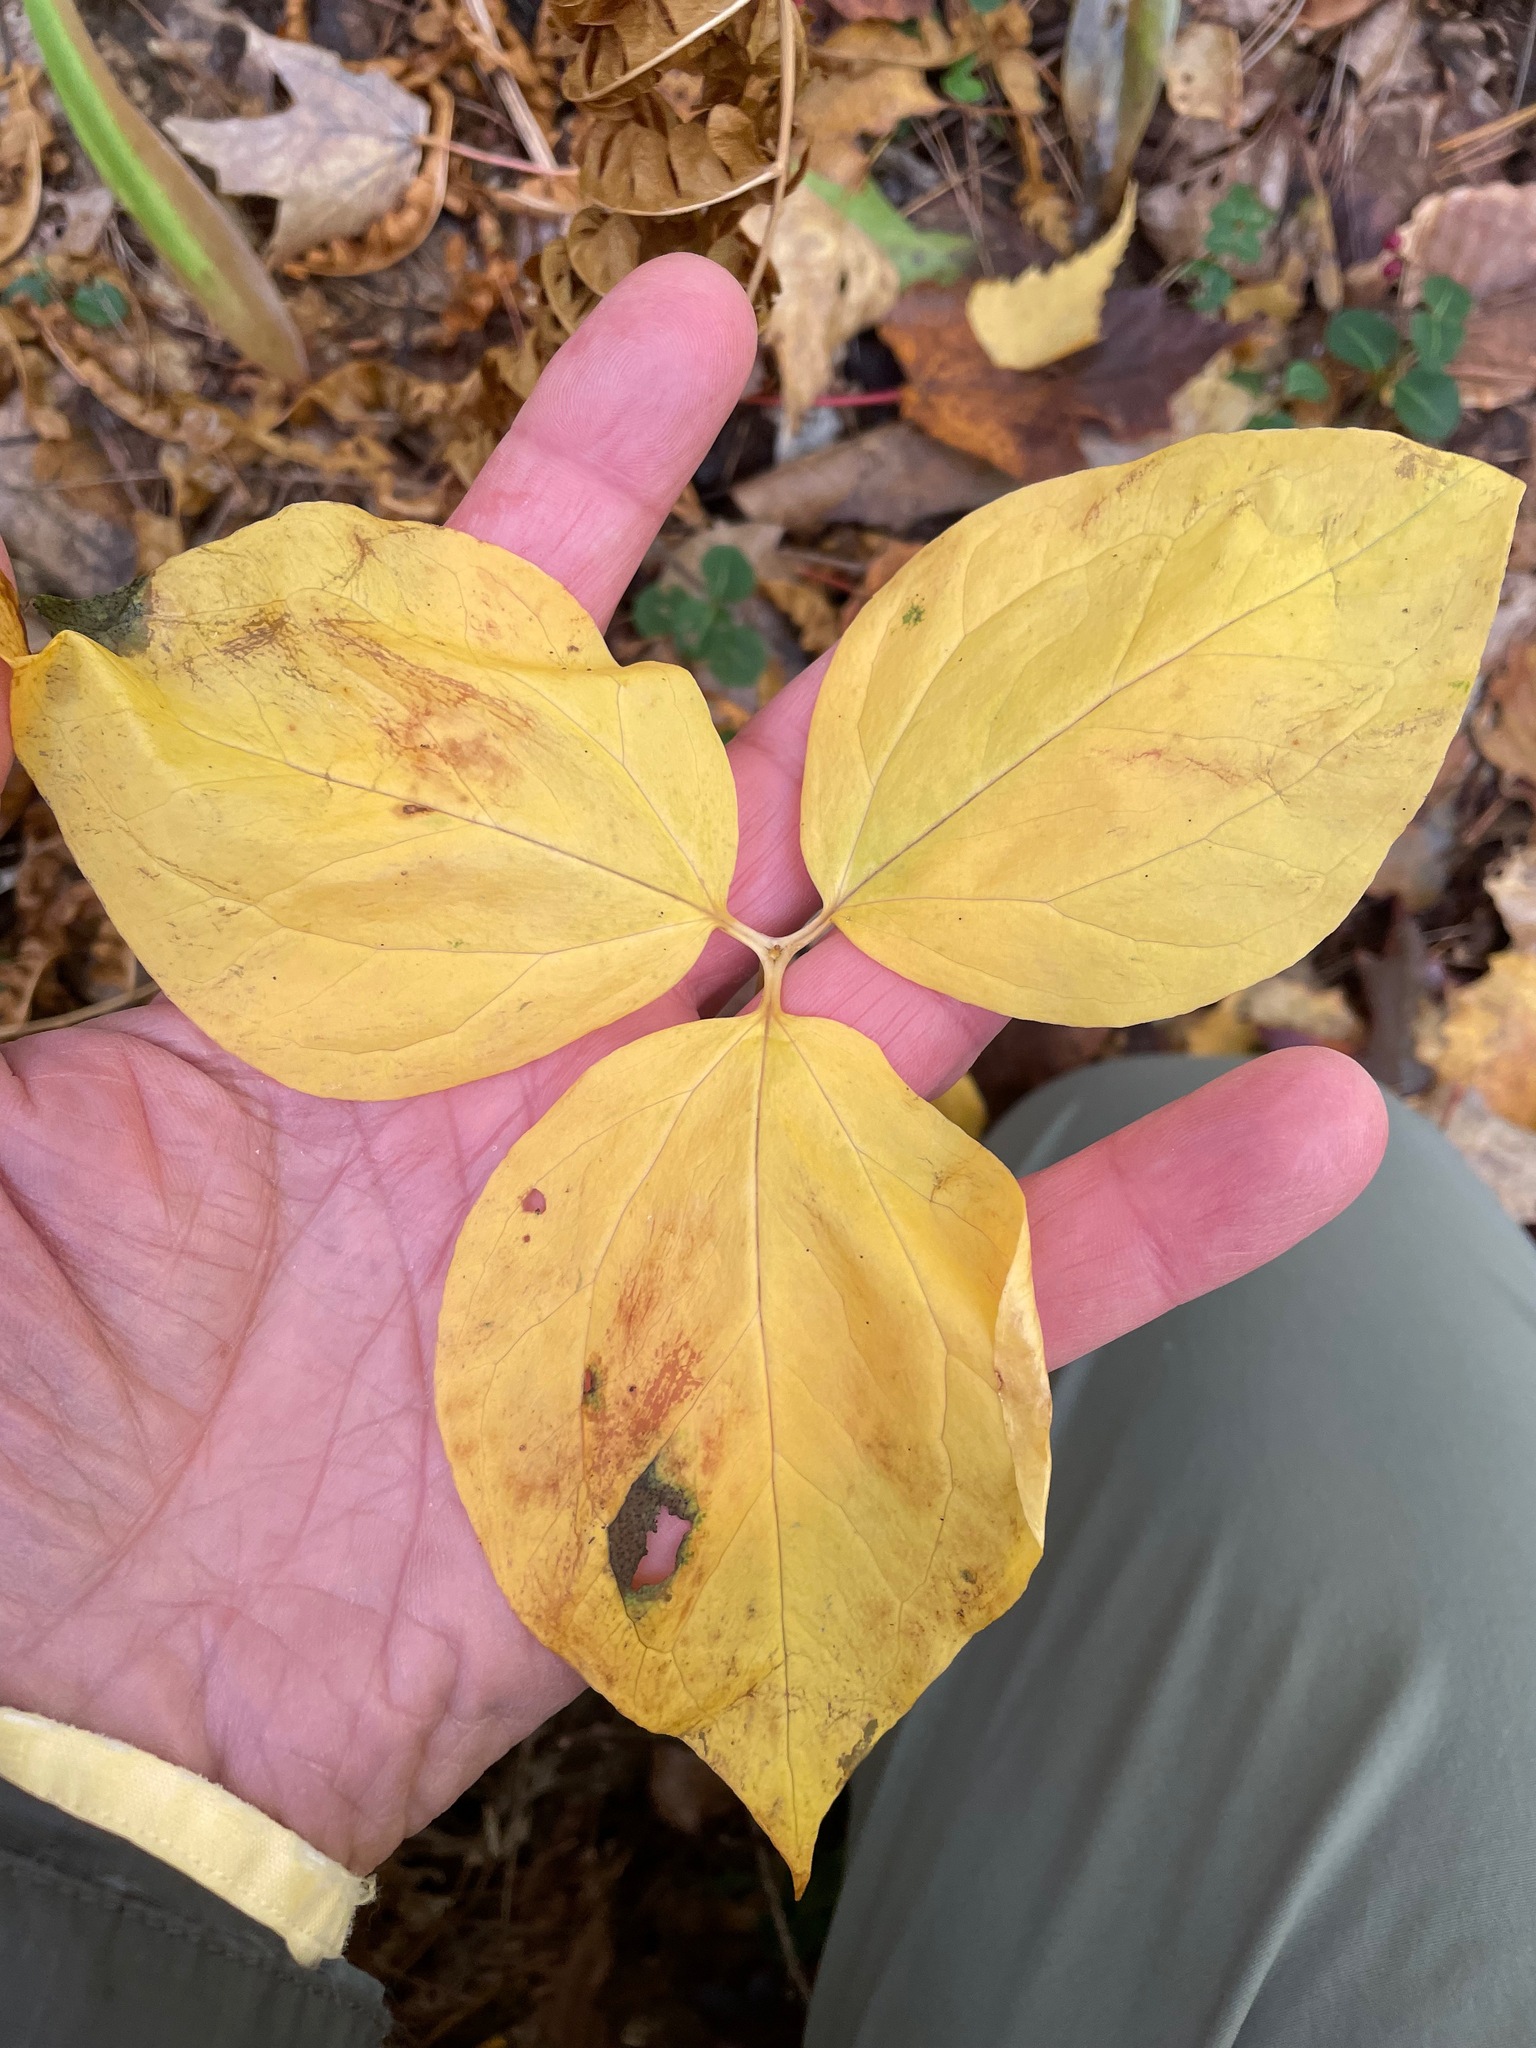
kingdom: Plantae
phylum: Tracheophyta
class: Liliopsida
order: Liliales
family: Melanthiaceae
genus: Trillium
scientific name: Trillium undulatum
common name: Paint trillium
